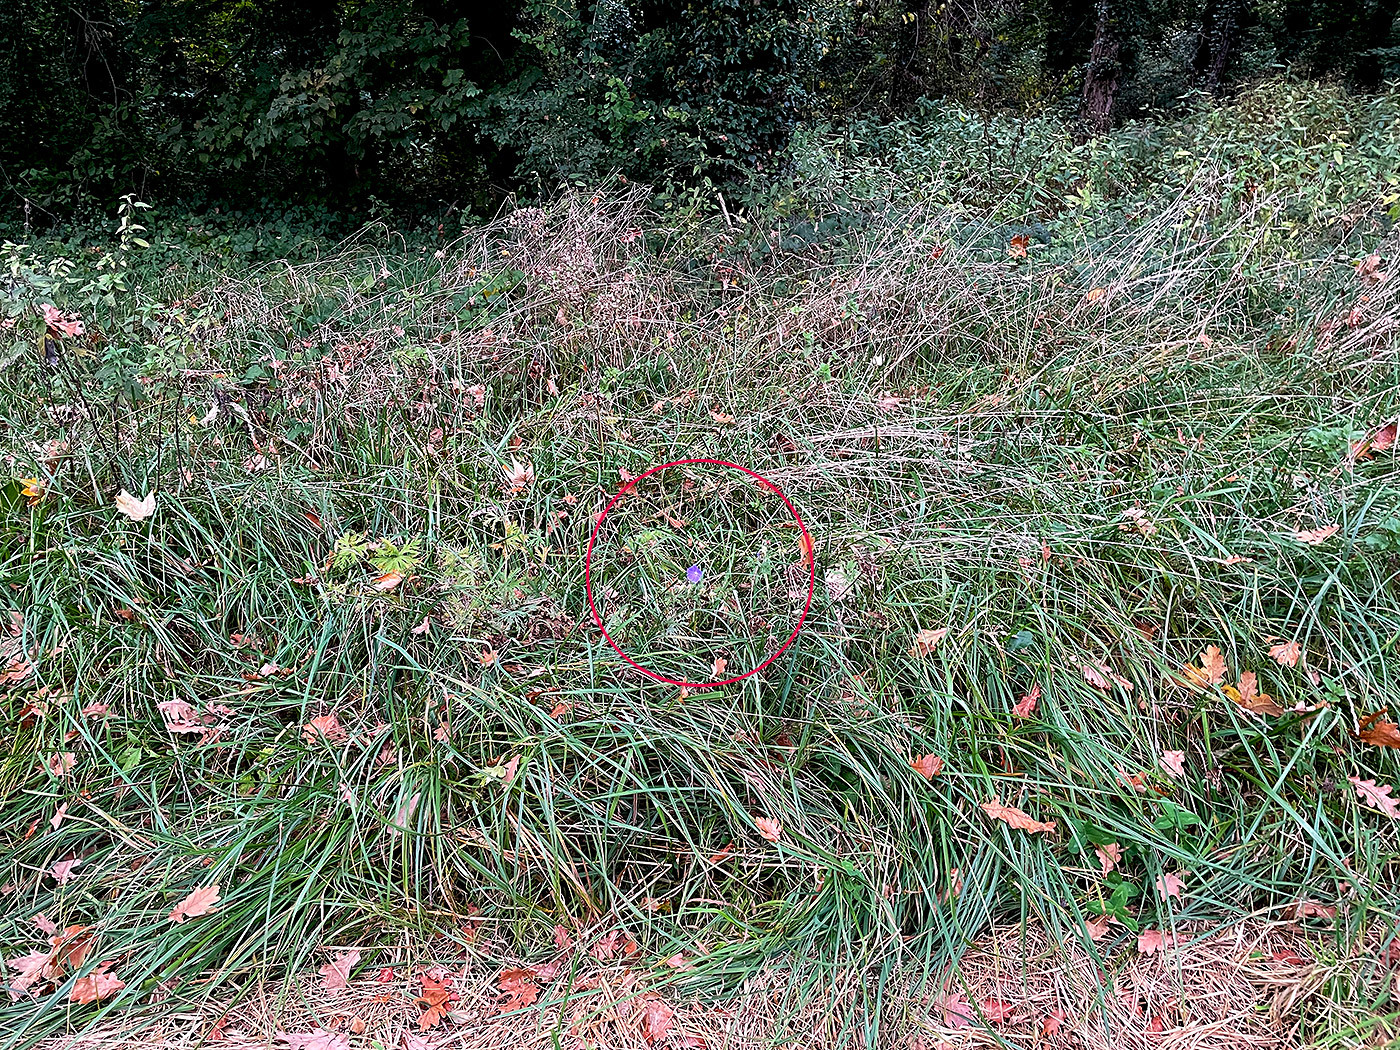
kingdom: Plantae
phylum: Tracheophyta
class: Magnoliopsida
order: Geraniales
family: Geraniaceae
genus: Geranium
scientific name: Geranium pratense
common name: Meadow crane's-bill
